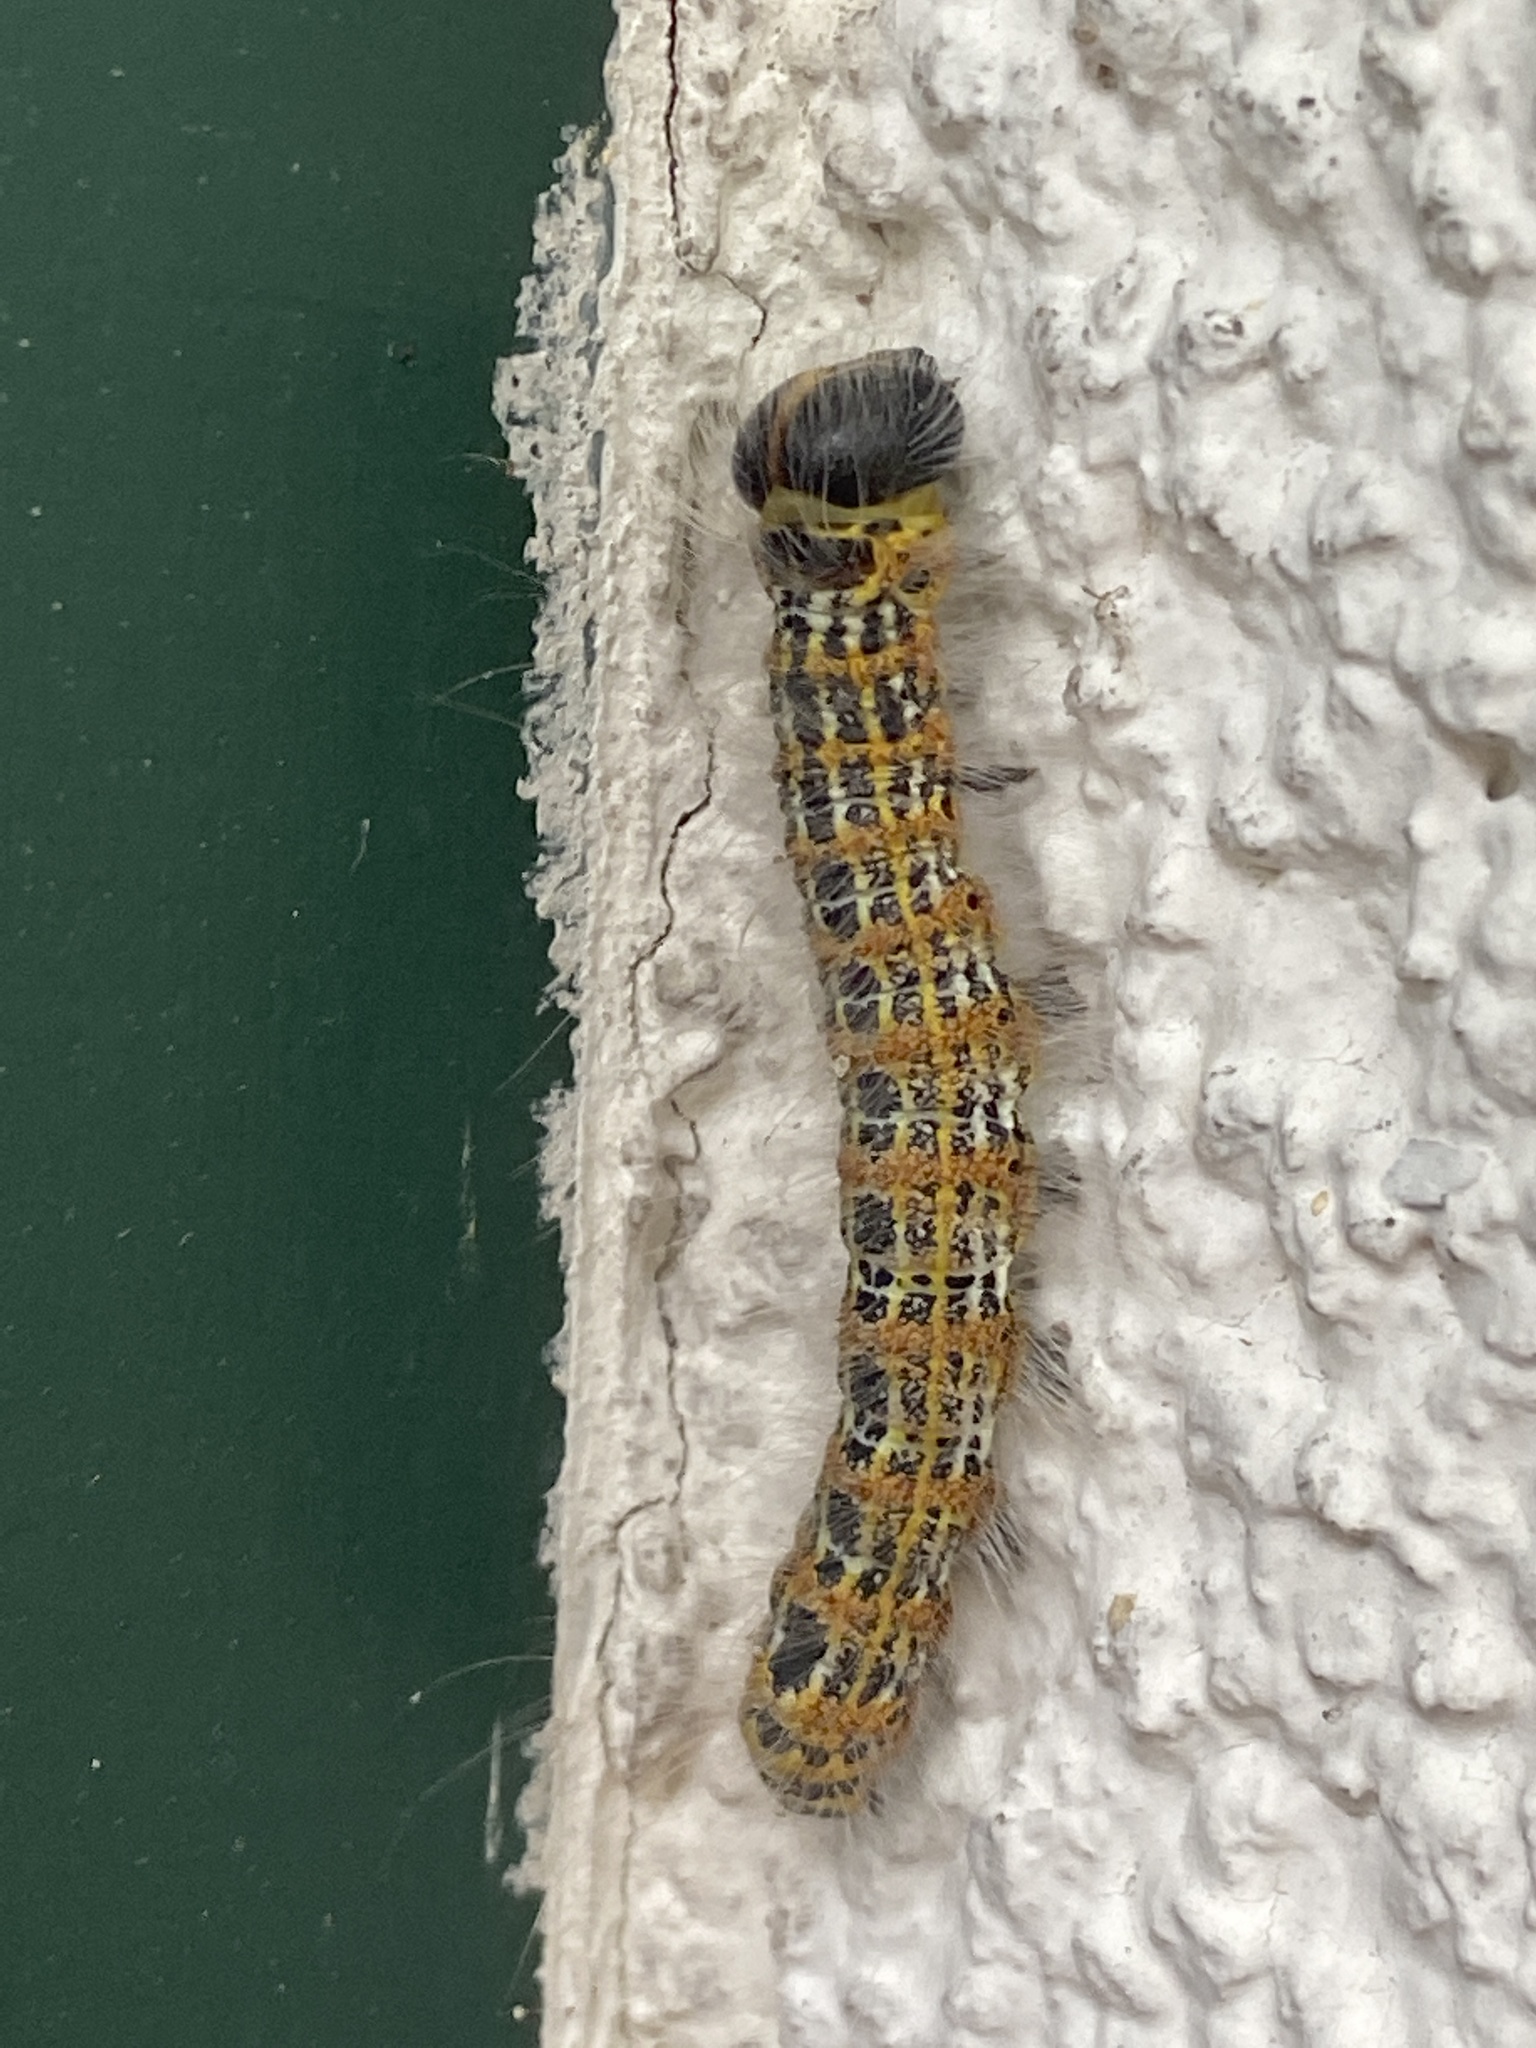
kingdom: Animalia
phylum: Arthropoda
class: Insecta
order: Lepidoptera
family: Notodontidae
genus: Phalera
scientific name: Phalera bucephala
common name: Buff-tip
